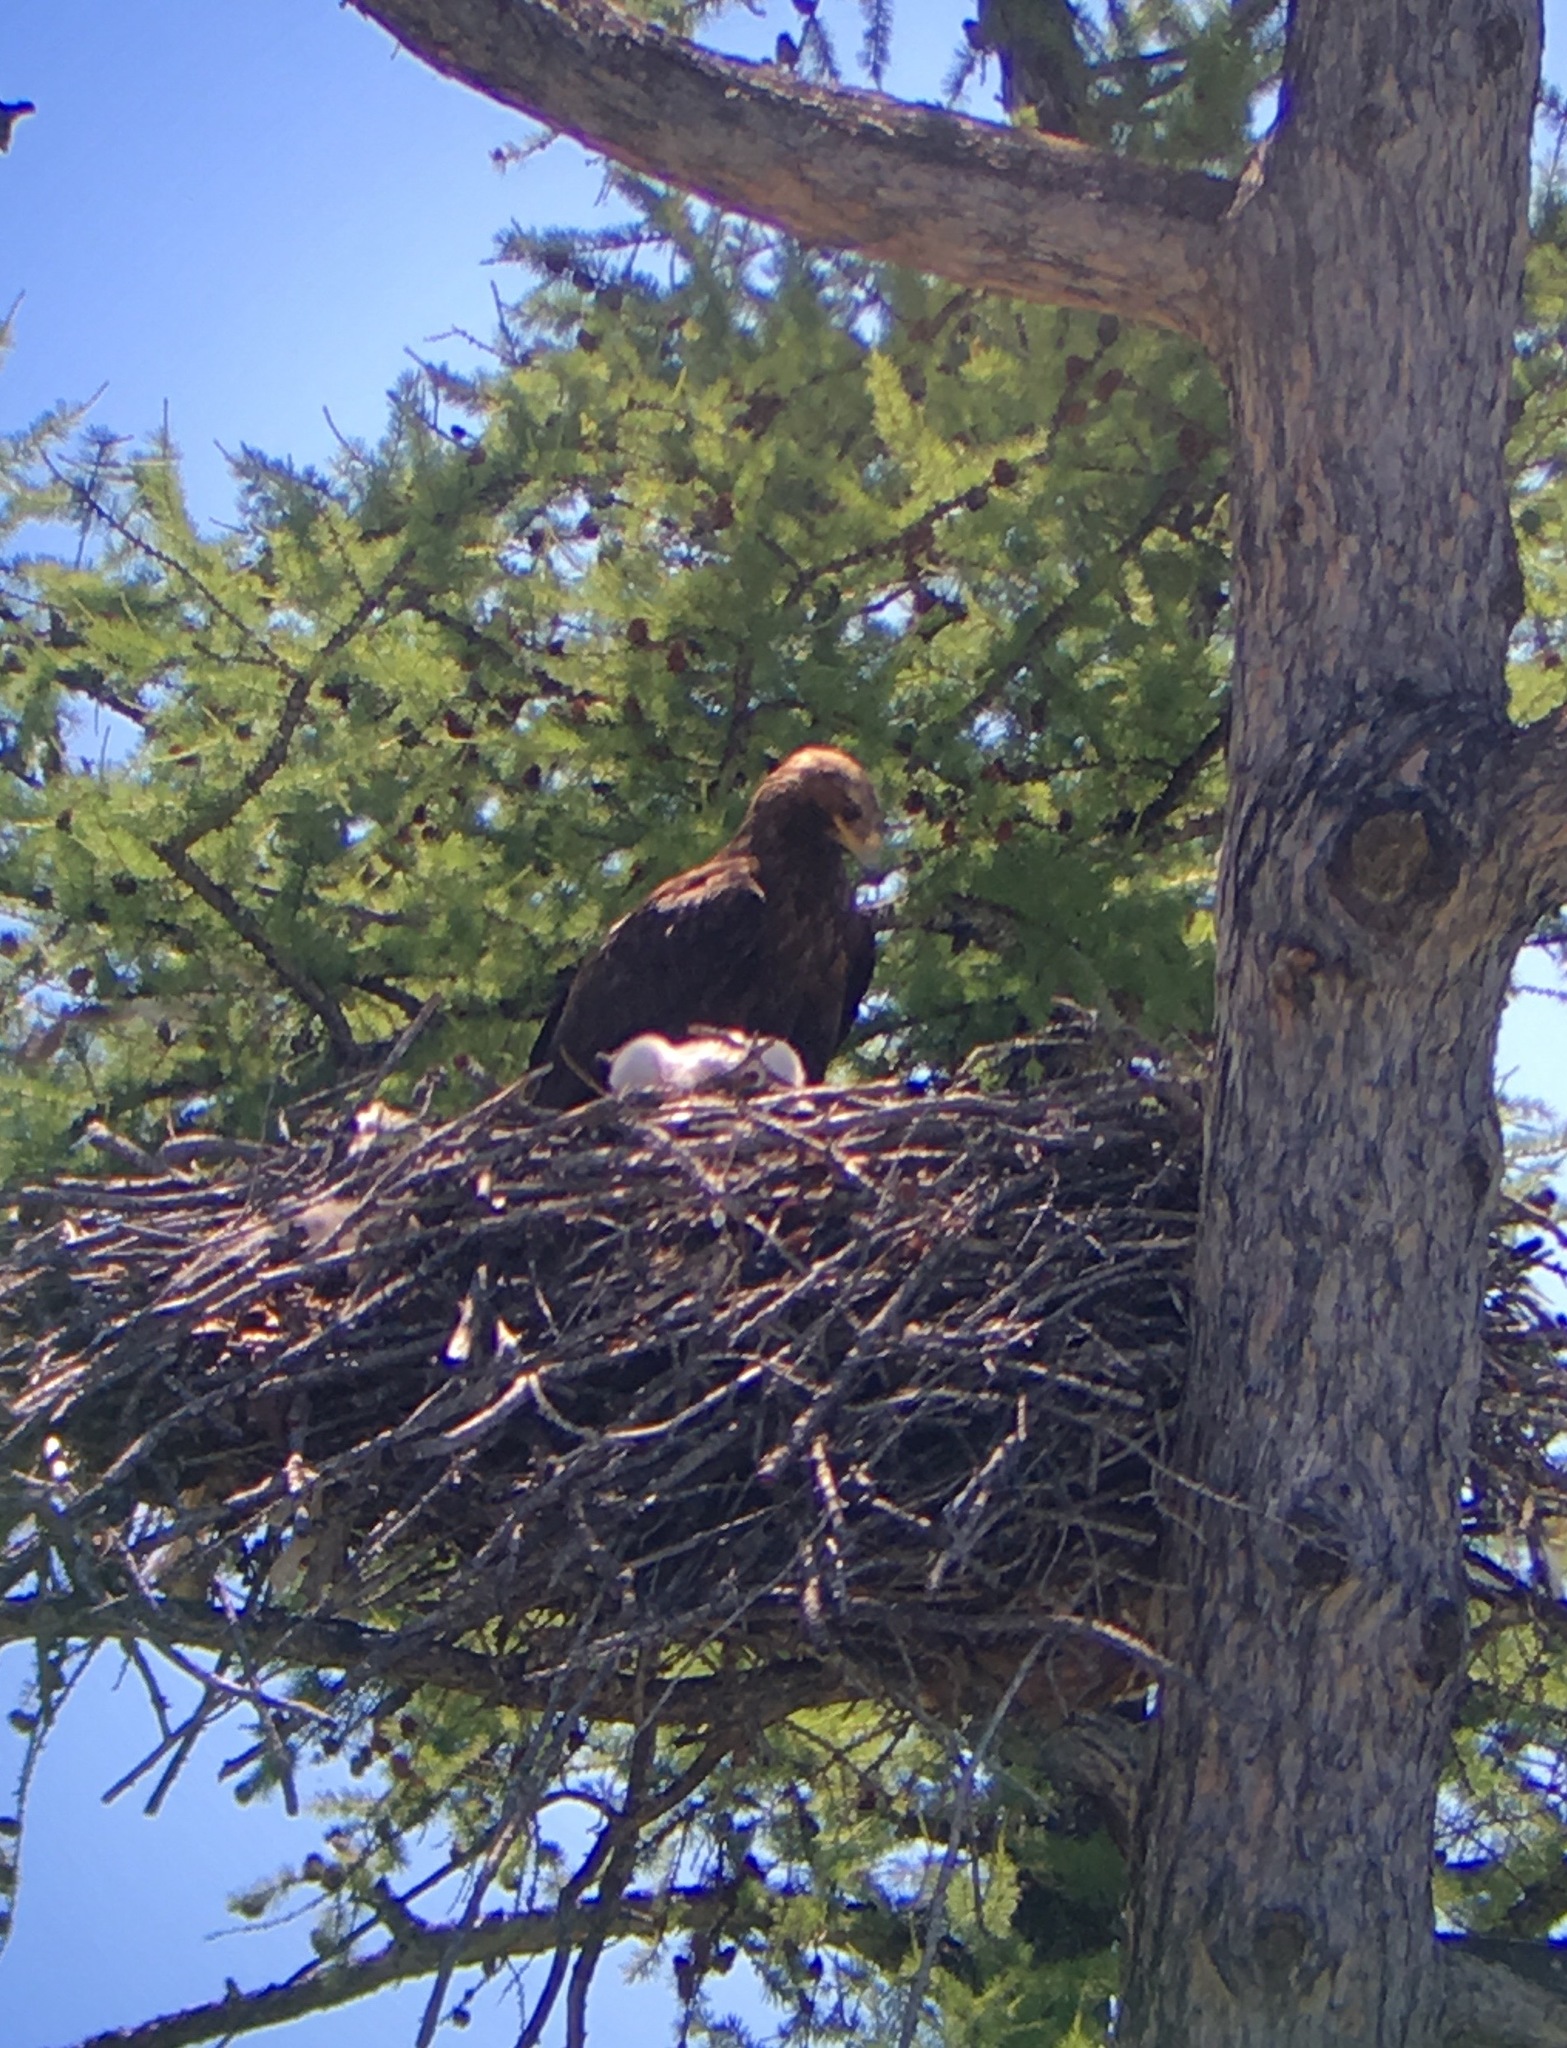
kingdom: Animalia
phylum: Chordata
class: Aves
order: Accipitriformes
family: Accipitridae
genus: Aquila
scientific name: Aquila nipalensis
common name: Steppe eagle
